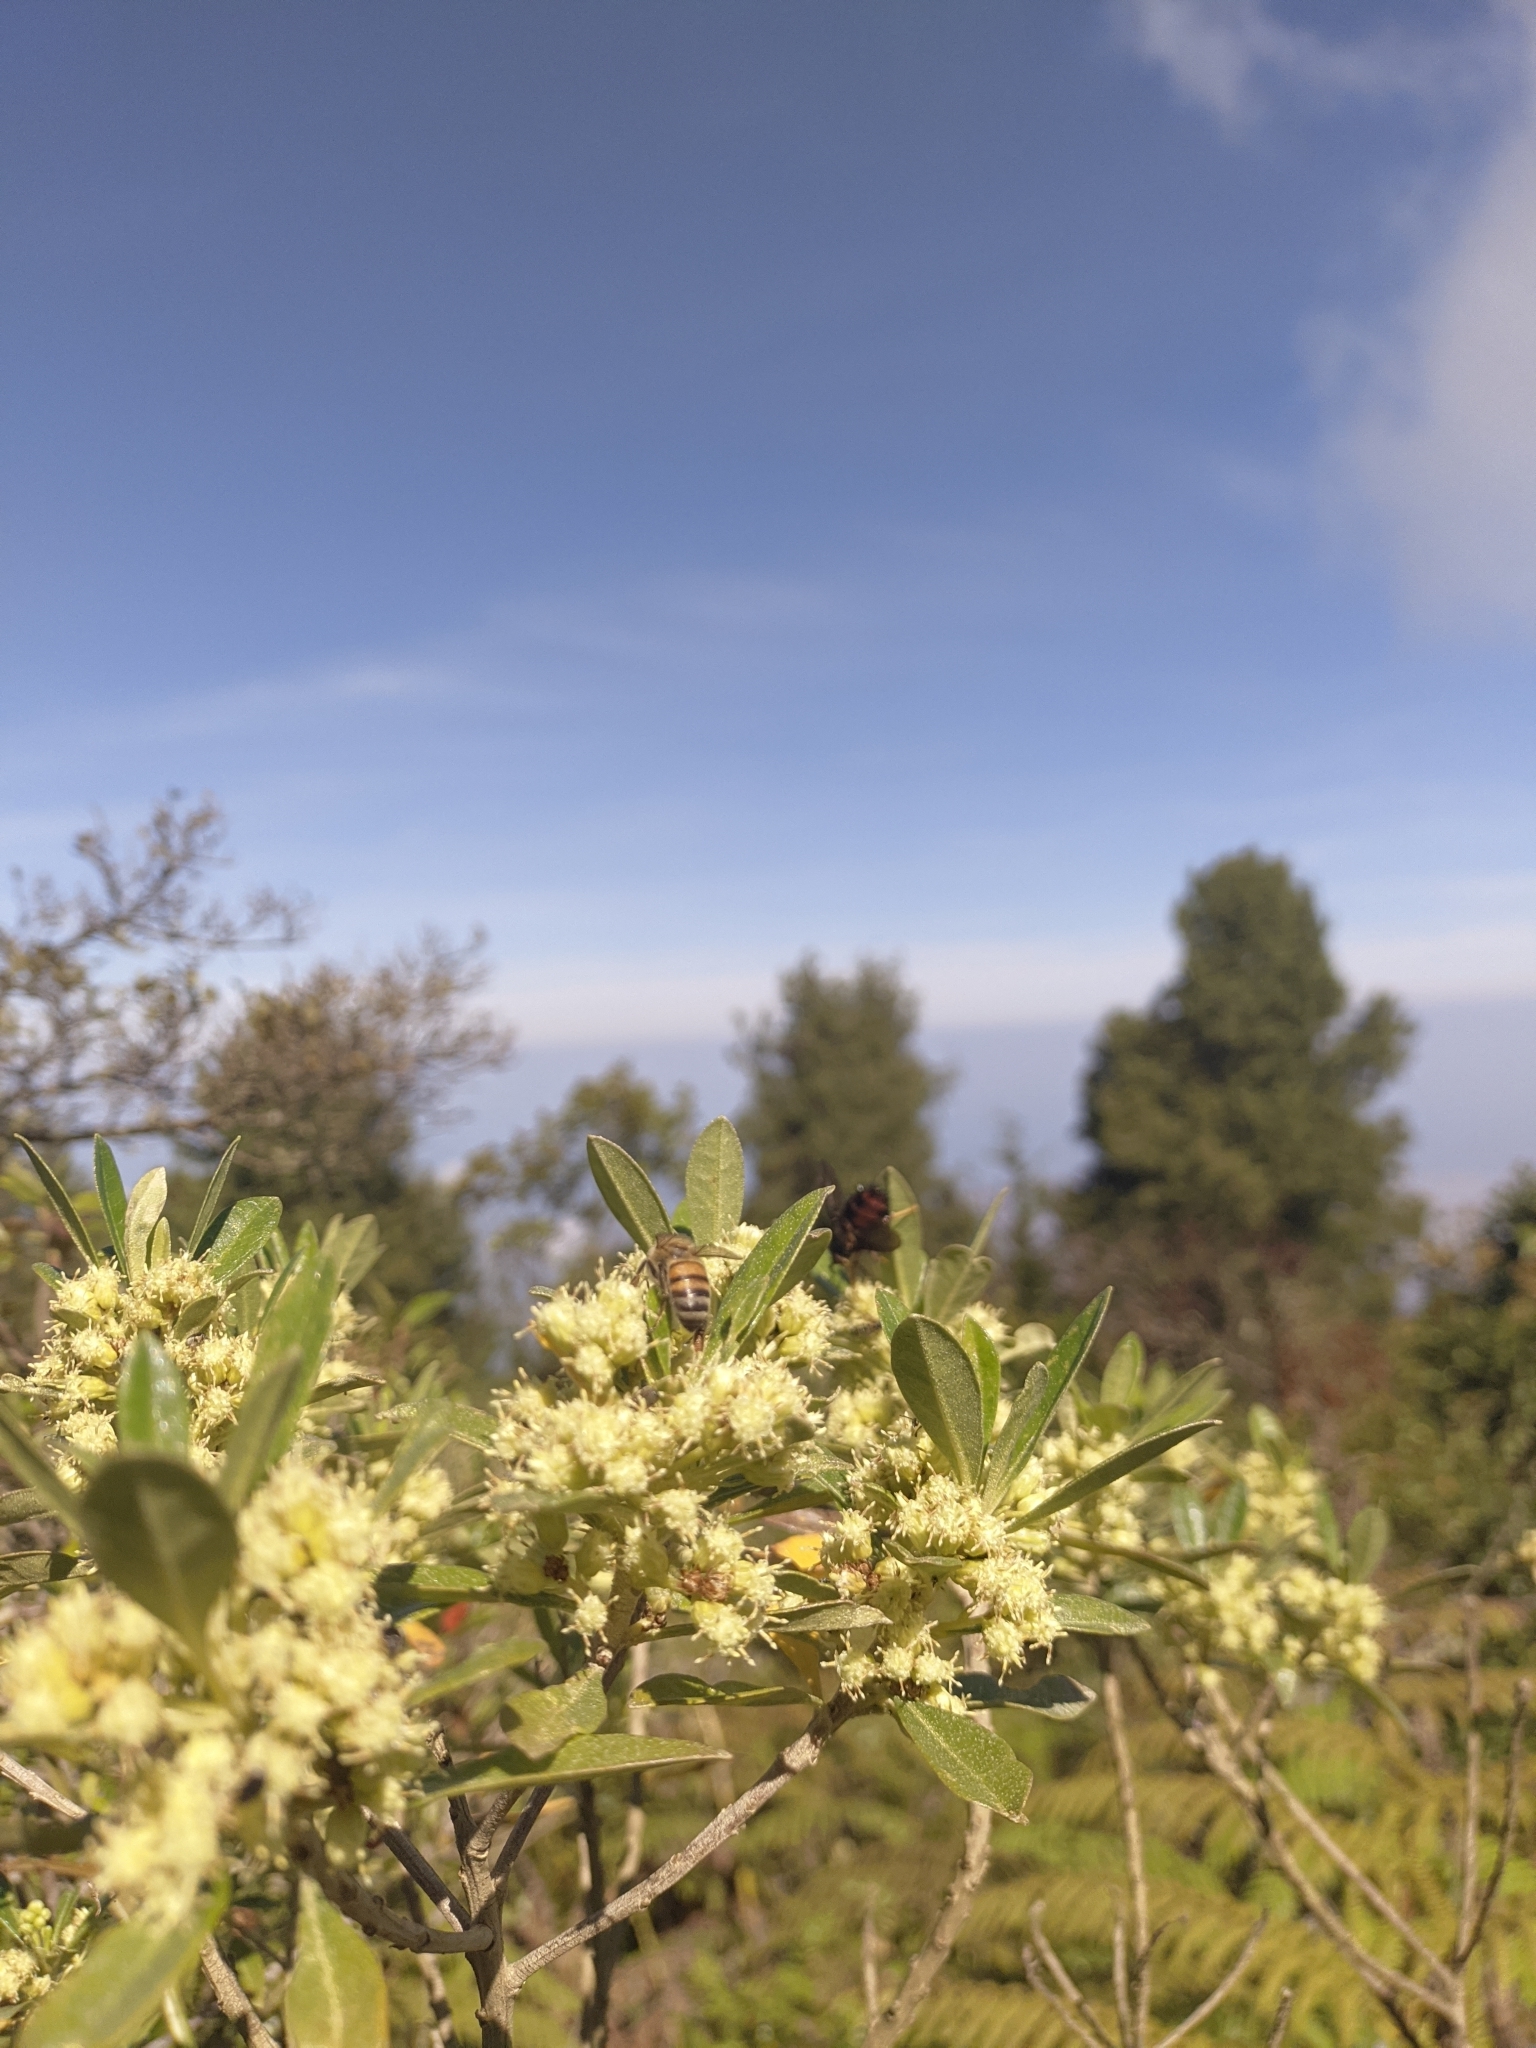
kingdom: Animalia
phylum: Arthropoda
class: Insecta
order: Hymenoptera
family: Apidae
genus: Apis
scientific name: Apis mellifera
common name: Honey bee
